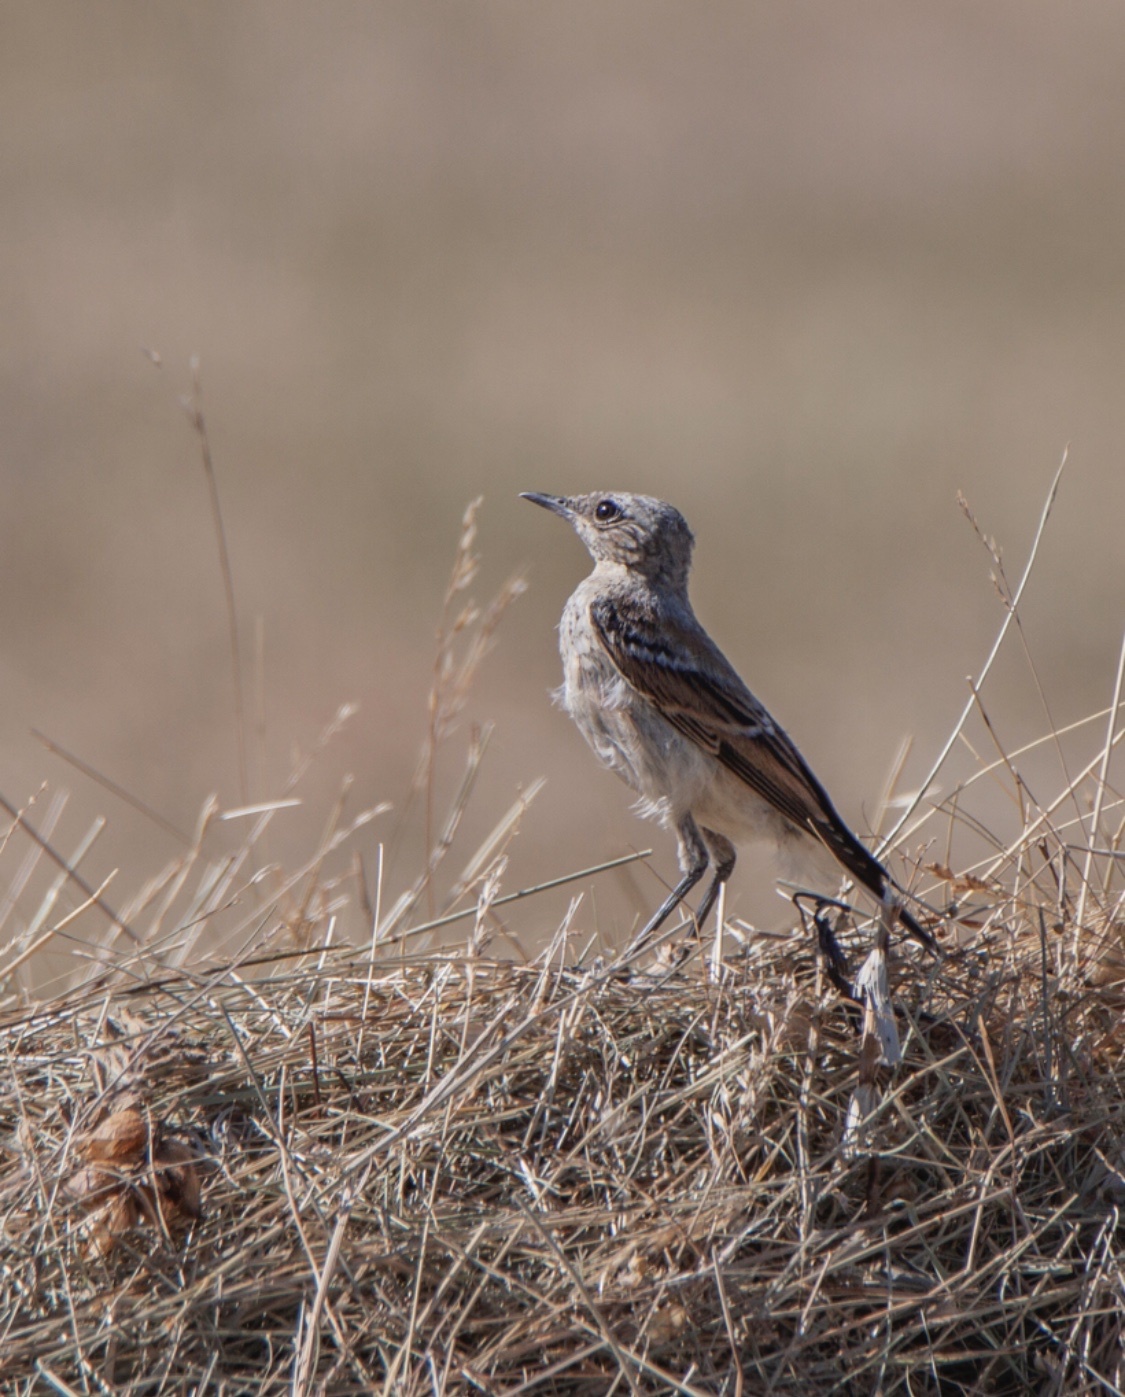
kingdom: Animalia
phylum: Chordata
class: Aves
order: Passeriformes
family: Muscicapidae
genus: Oenanthe
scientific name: Oenanthe oenanthe
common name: Northern wheatear
